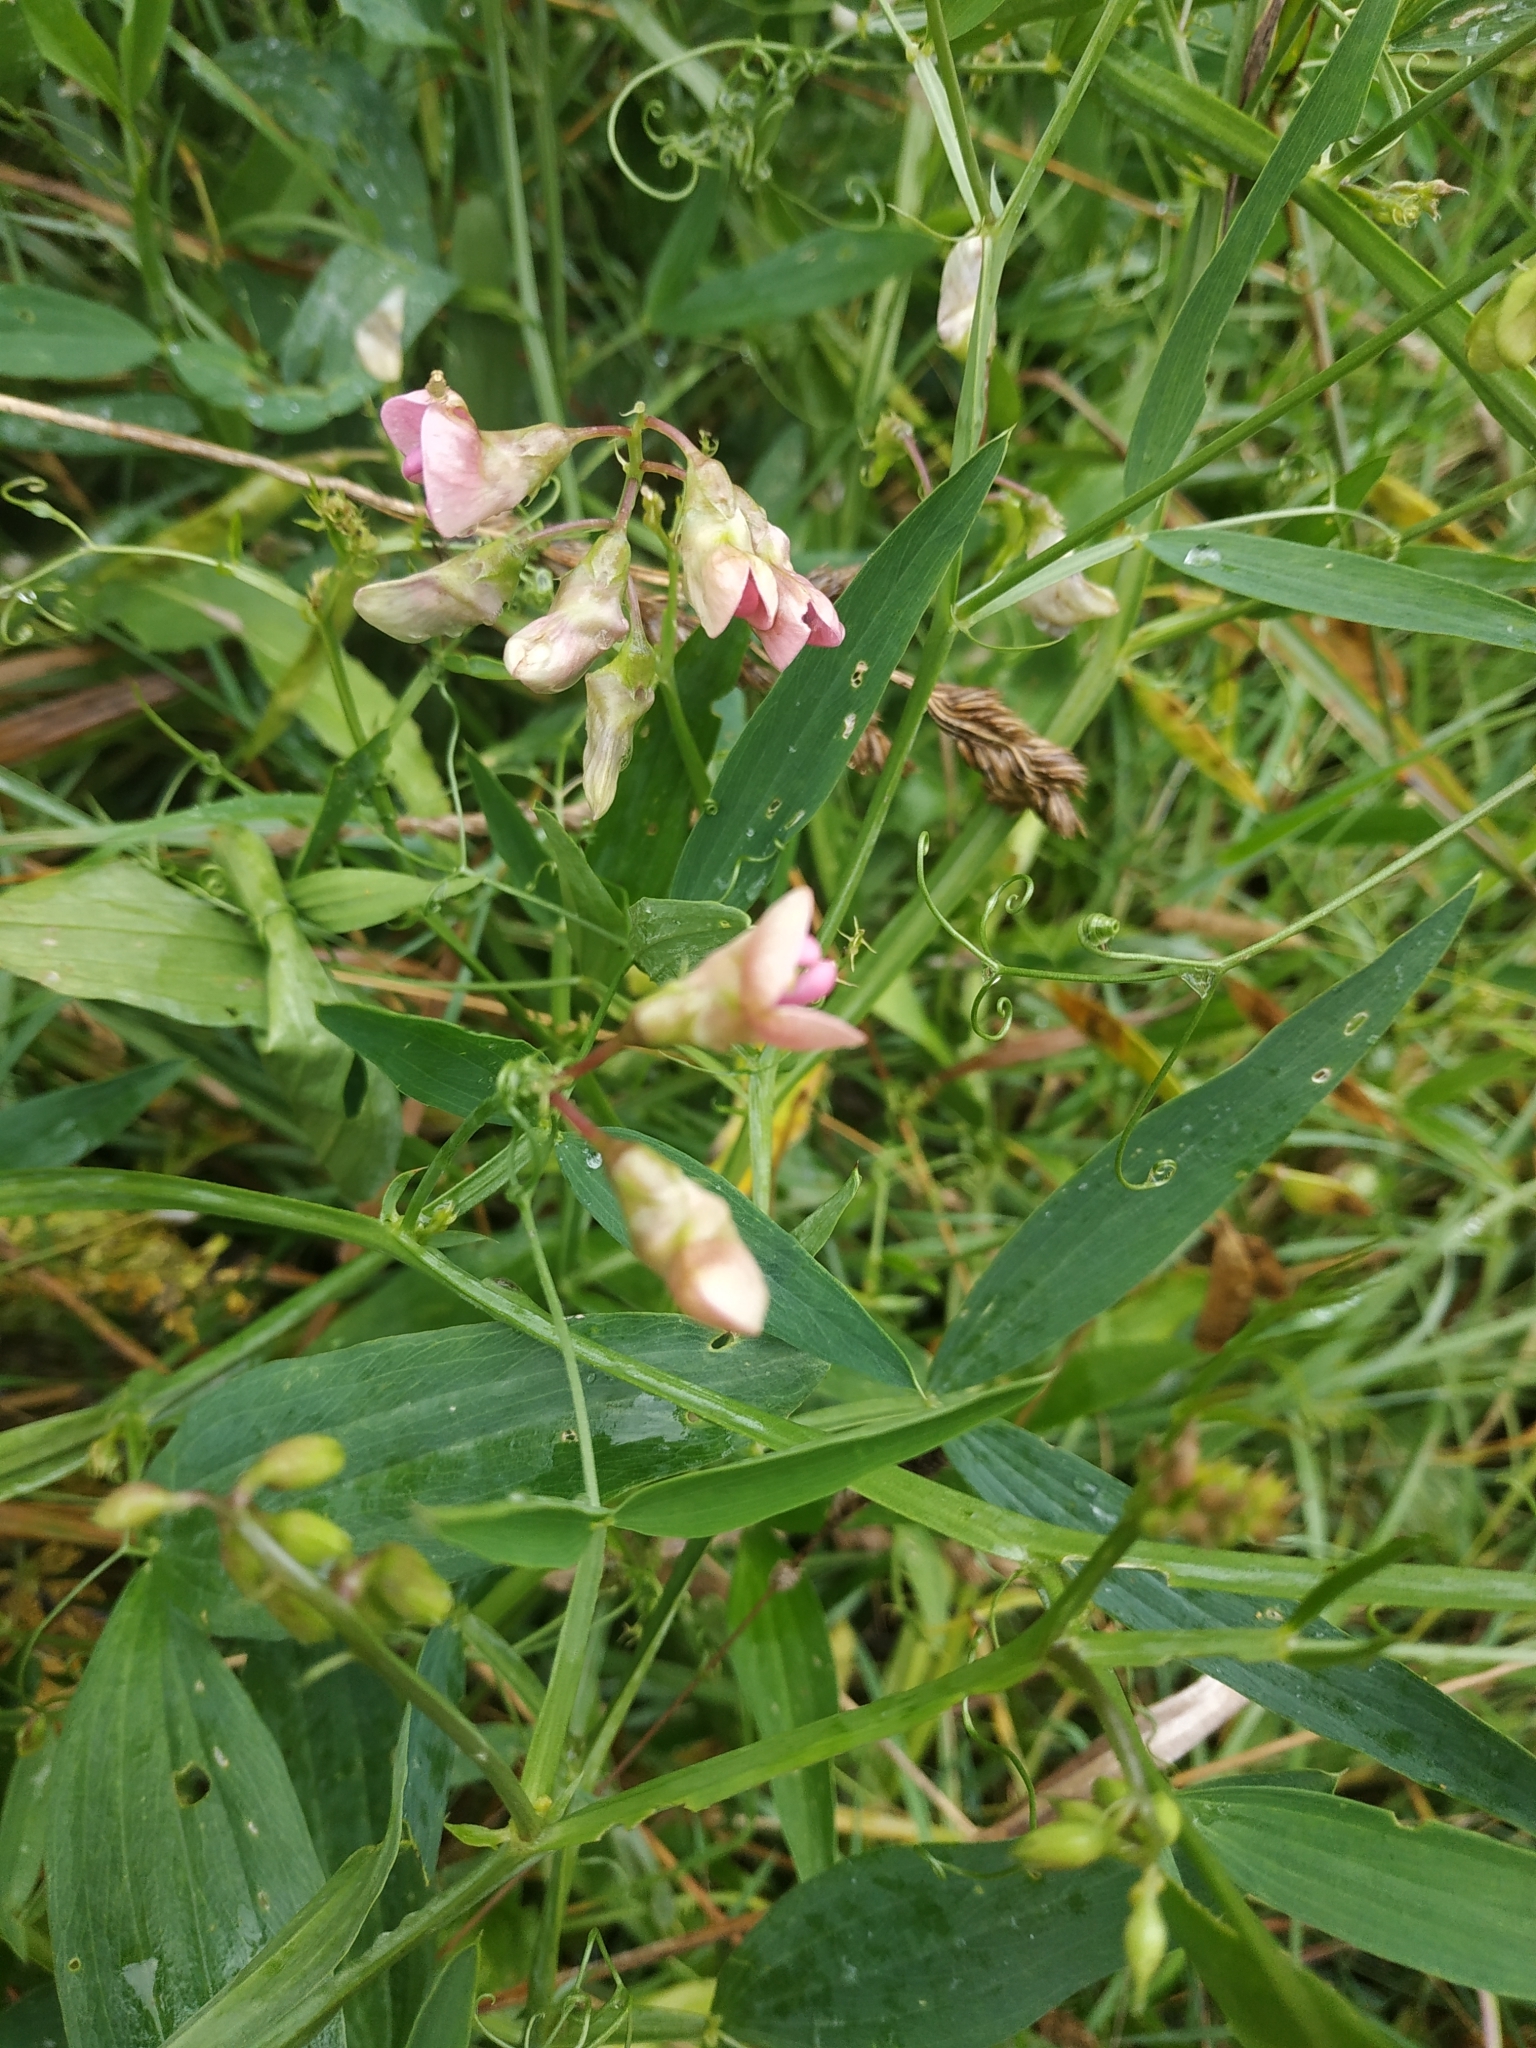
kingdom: Plantae
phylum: Tracheophyta
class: Magnoliopsida
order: Fabales
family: Fabaceae
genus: Lathyrus
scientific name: Lathyrus sylvestris
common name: Flat pea
